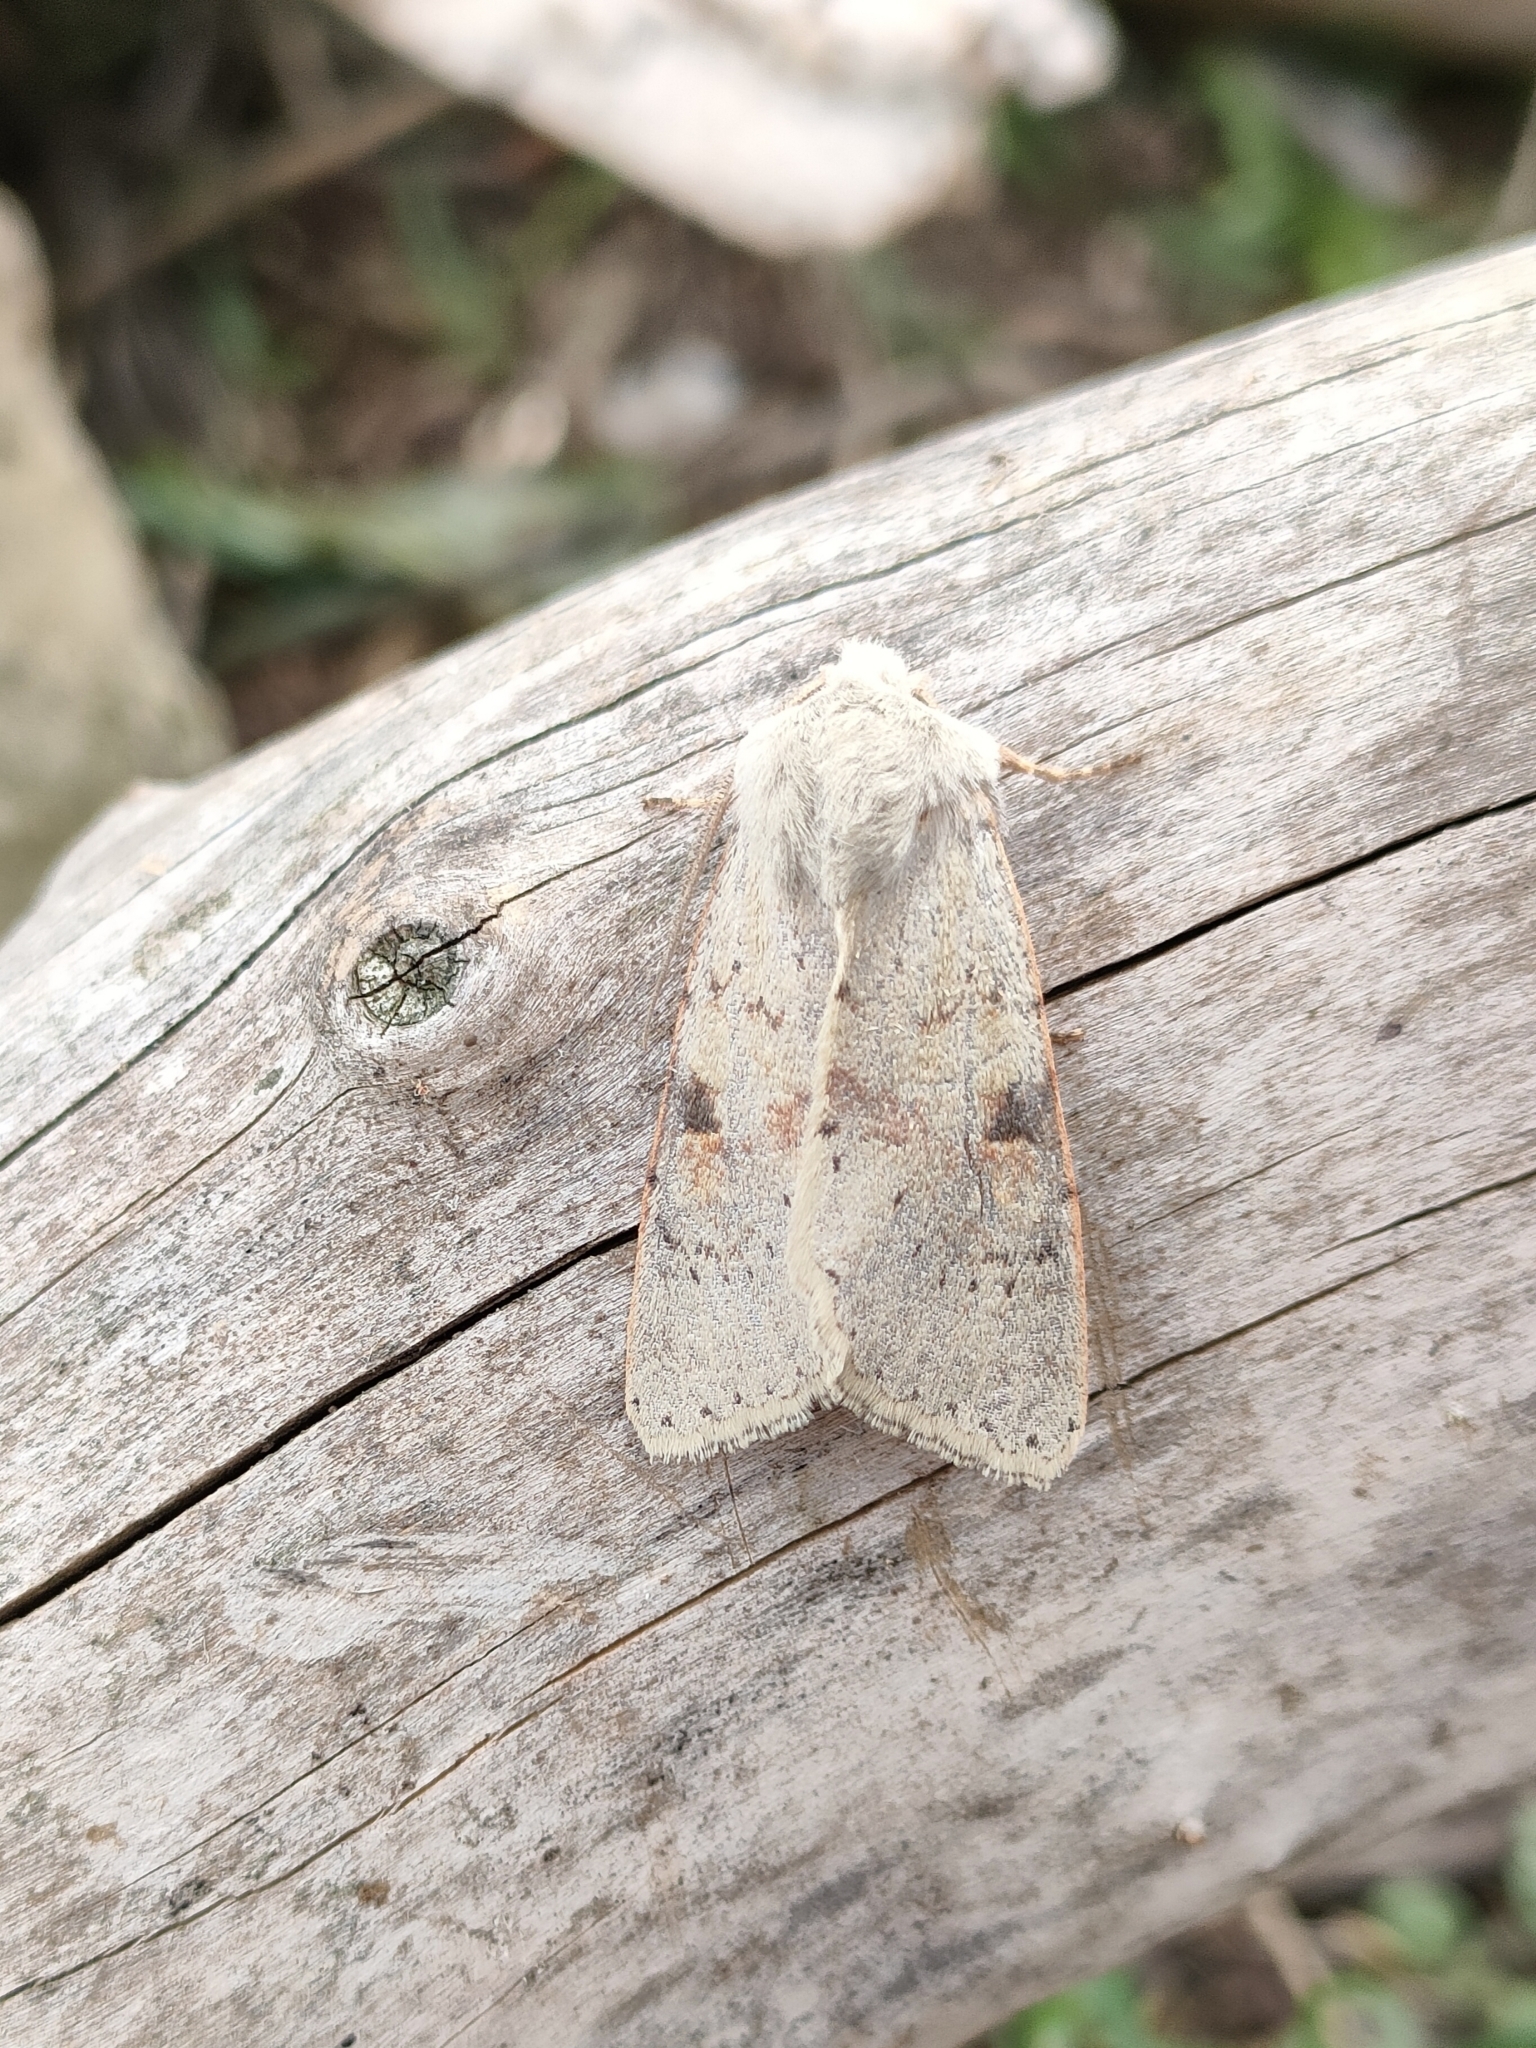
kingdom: Animalia
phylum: Arthropoda
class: Insecta
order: Lepidoptera
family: Noctuidae
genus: Ammopolia
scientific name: Ammopolia witzenmanni
